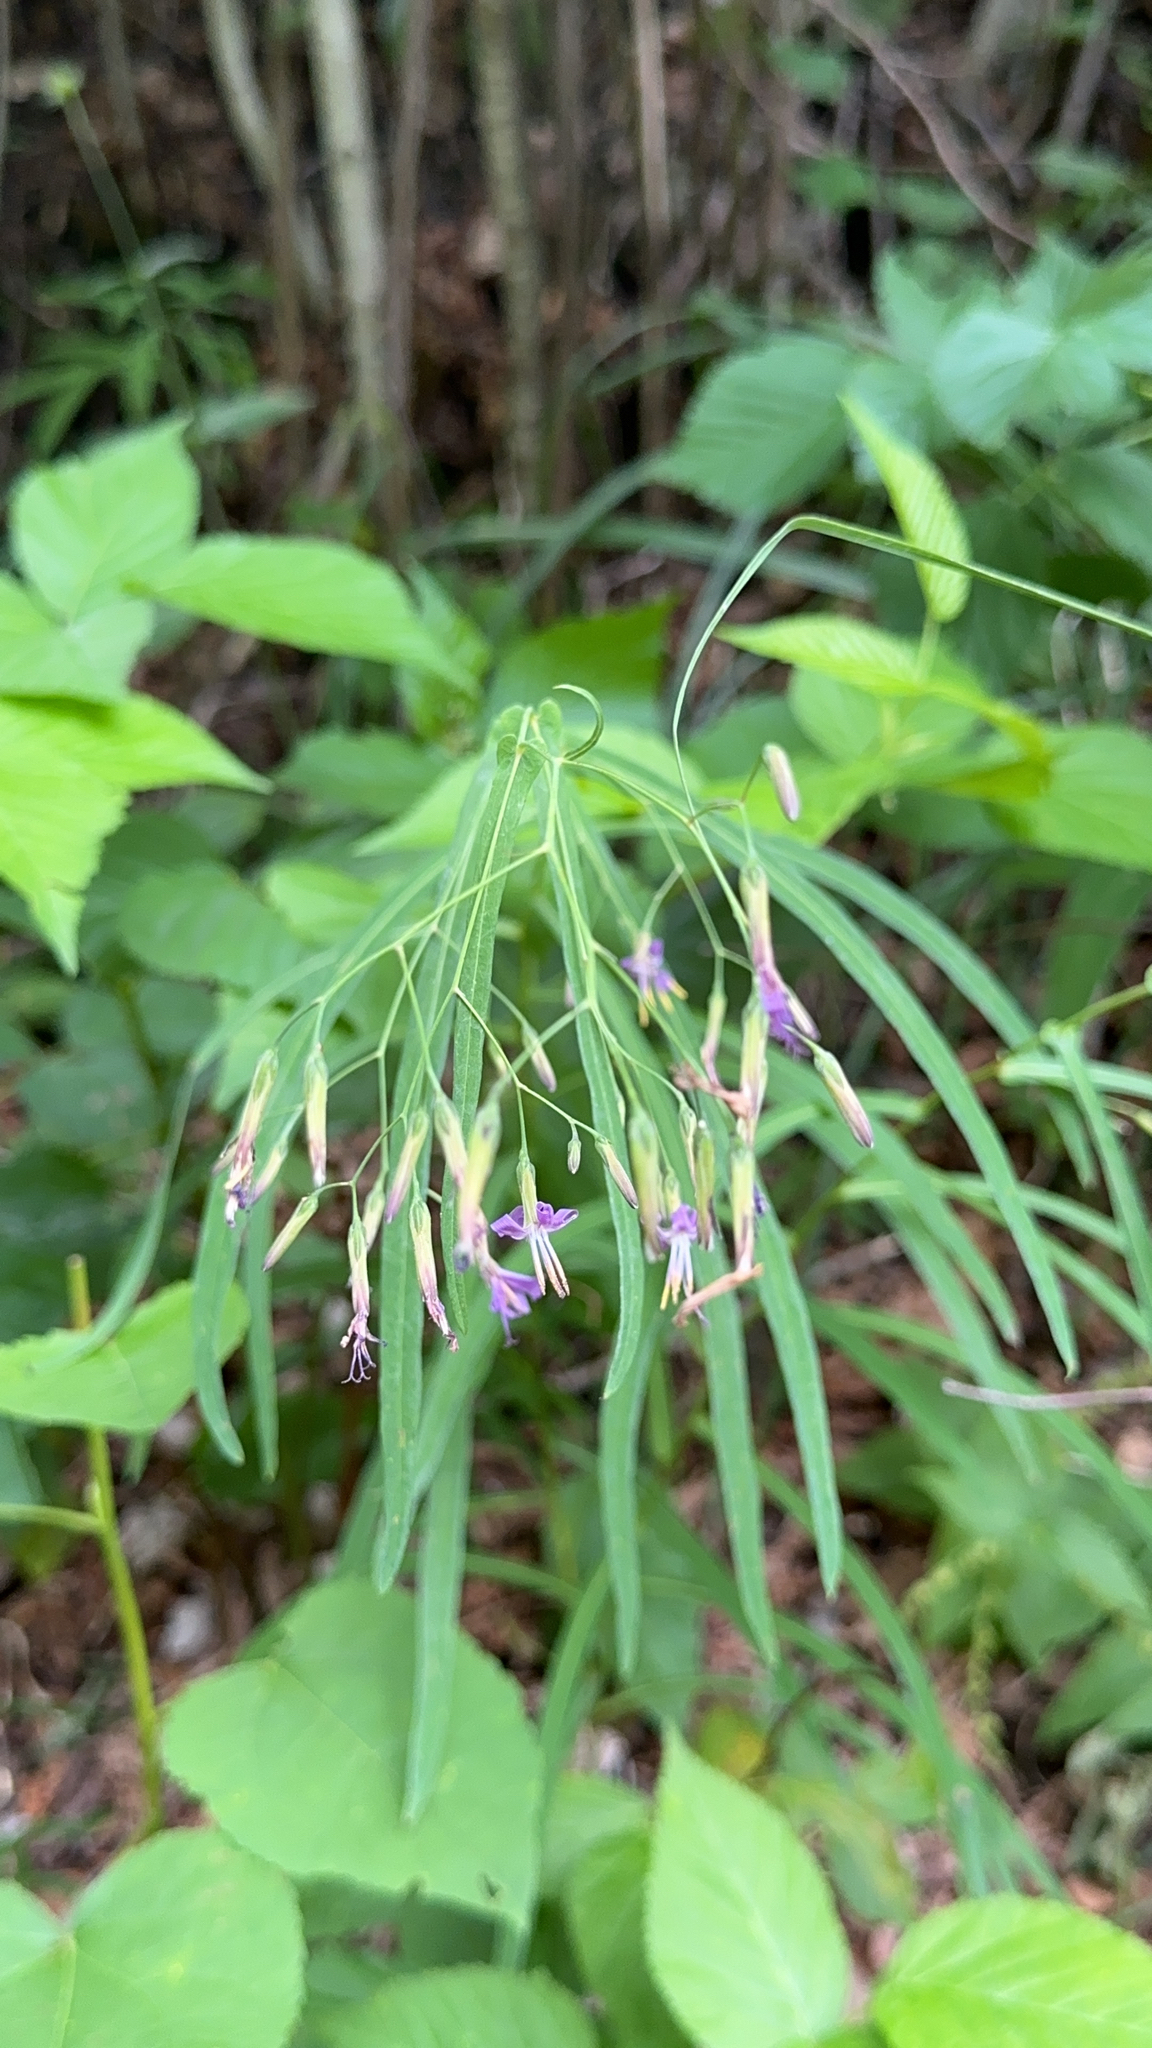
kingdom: Plantae
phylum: Tracheophyta
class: Magnoliopsida
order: Asterales
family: Asteraceae
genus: Prenanthes
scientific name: Prenanthes purpurea
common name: Purple lettuce
